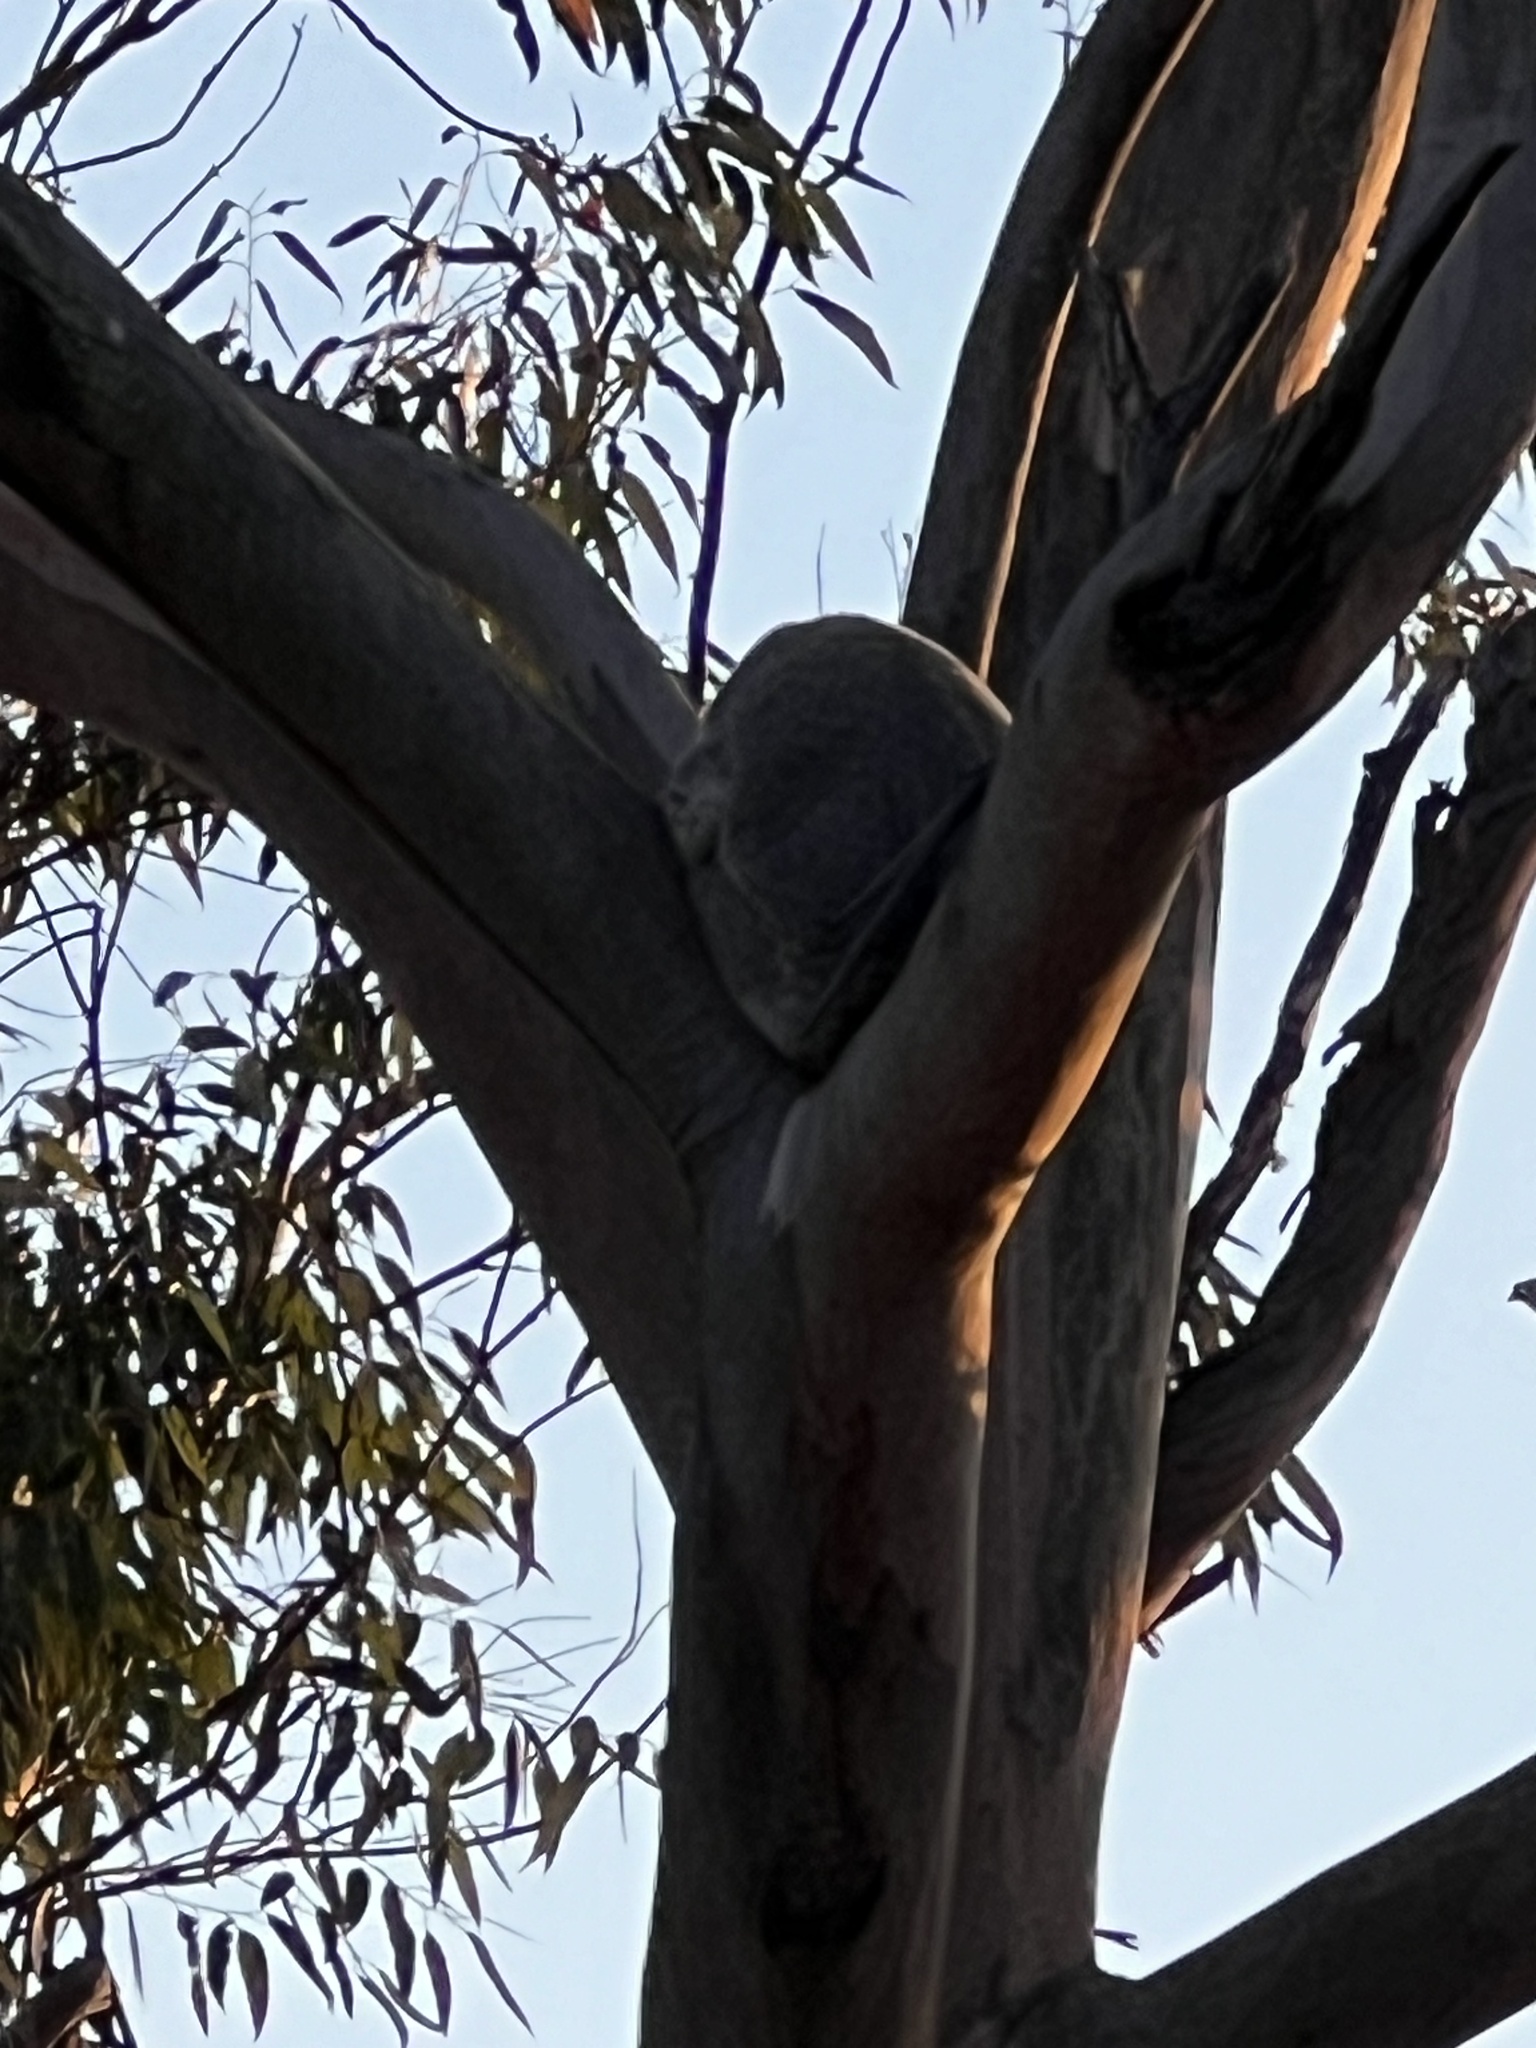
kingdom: Animalia
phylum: Chordata
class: Mammalia
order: Diprotodontia
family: Phascolarctidae
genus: Phascolarctos
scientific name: Phascolarctos cinereus
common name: Koala
